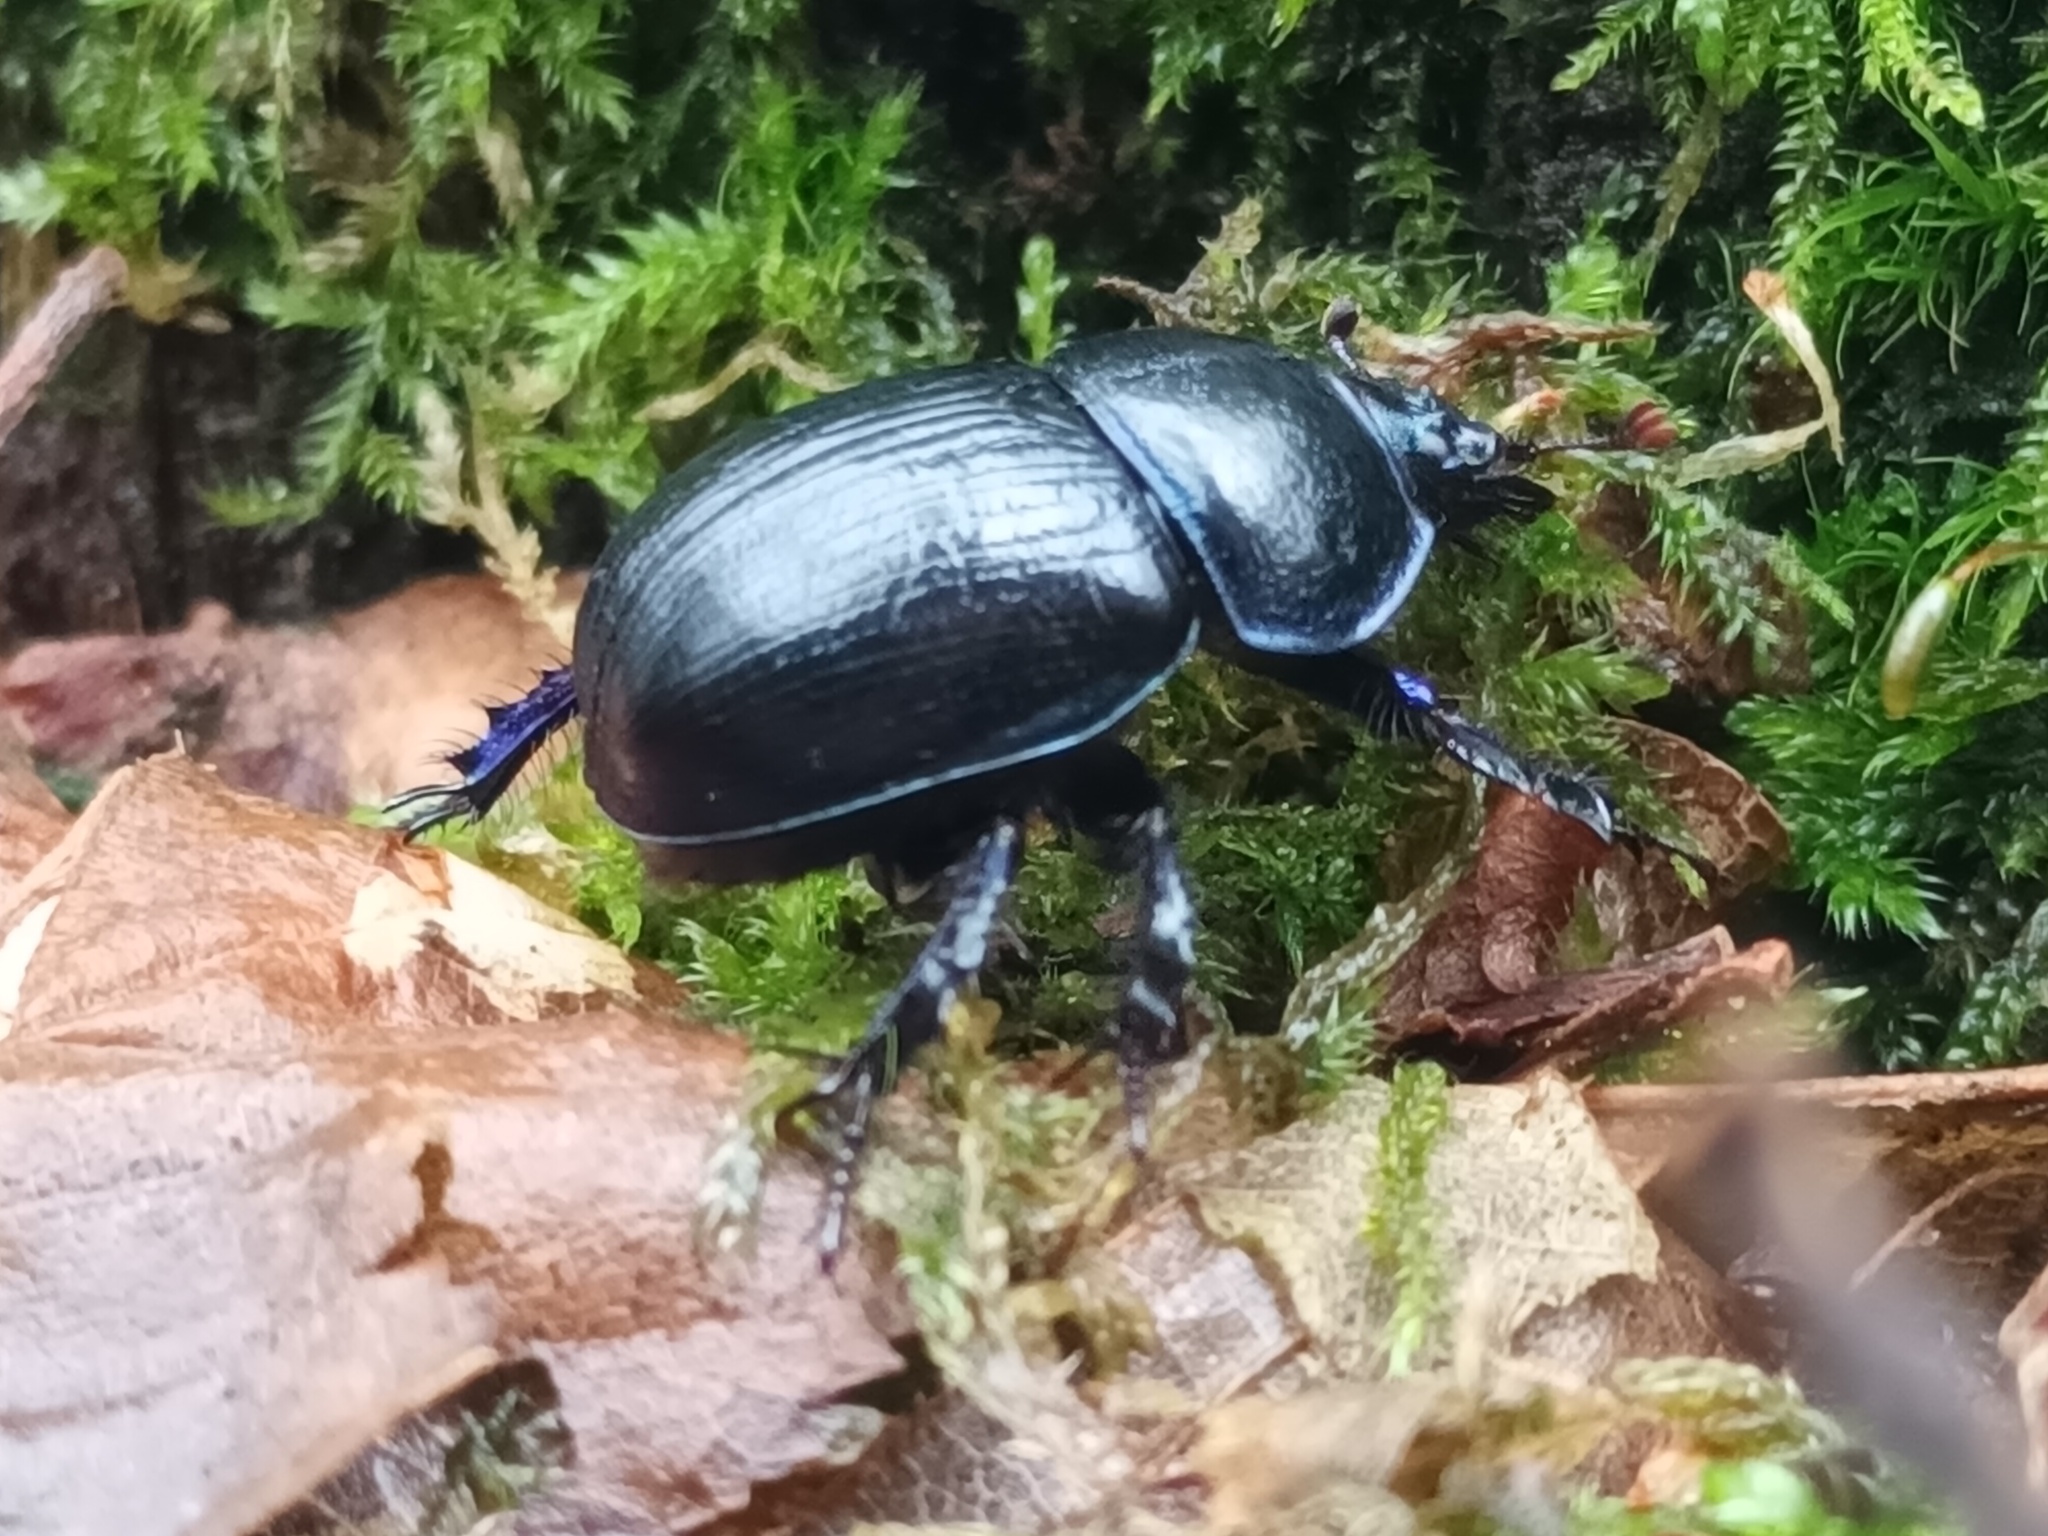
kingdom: Animalia
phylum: Arthropoda
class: Insecta
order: Coleoptera
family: Geotrupidae
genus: Anoplotrupes
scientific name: Anoplotrupes stercorosus
